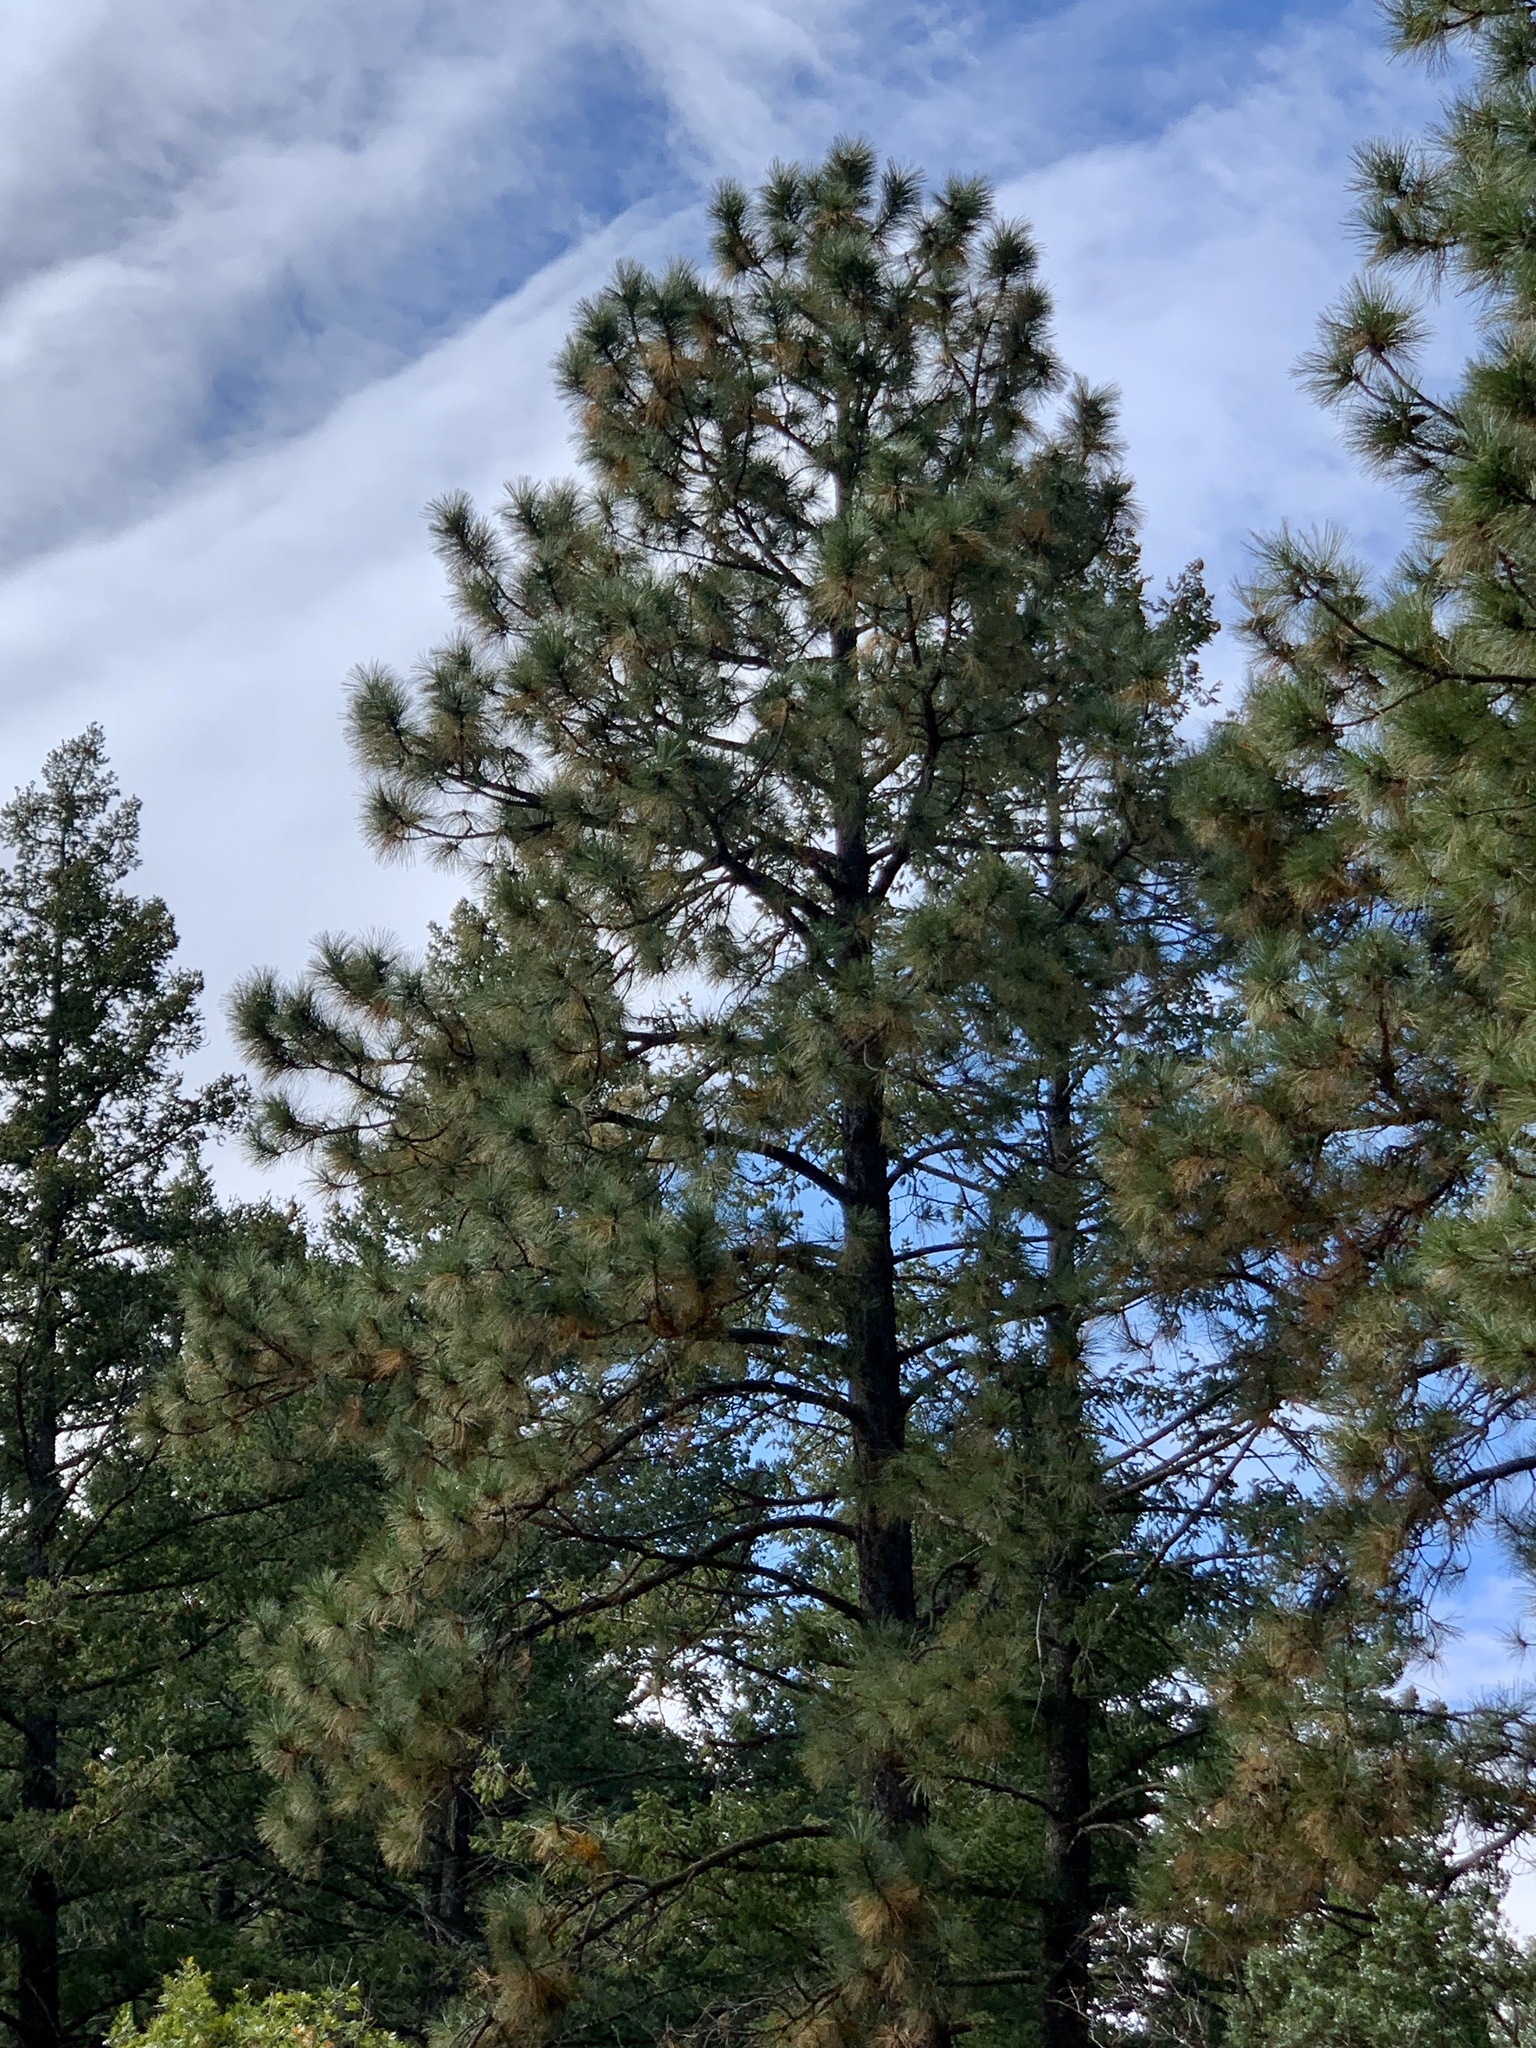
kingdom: Plantae
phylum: Tracheophyta
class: Pinopsida
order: Pinales
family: Pinaceae
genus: Pinus
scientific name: Pinus ponderosa
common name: Western yellow-pine
